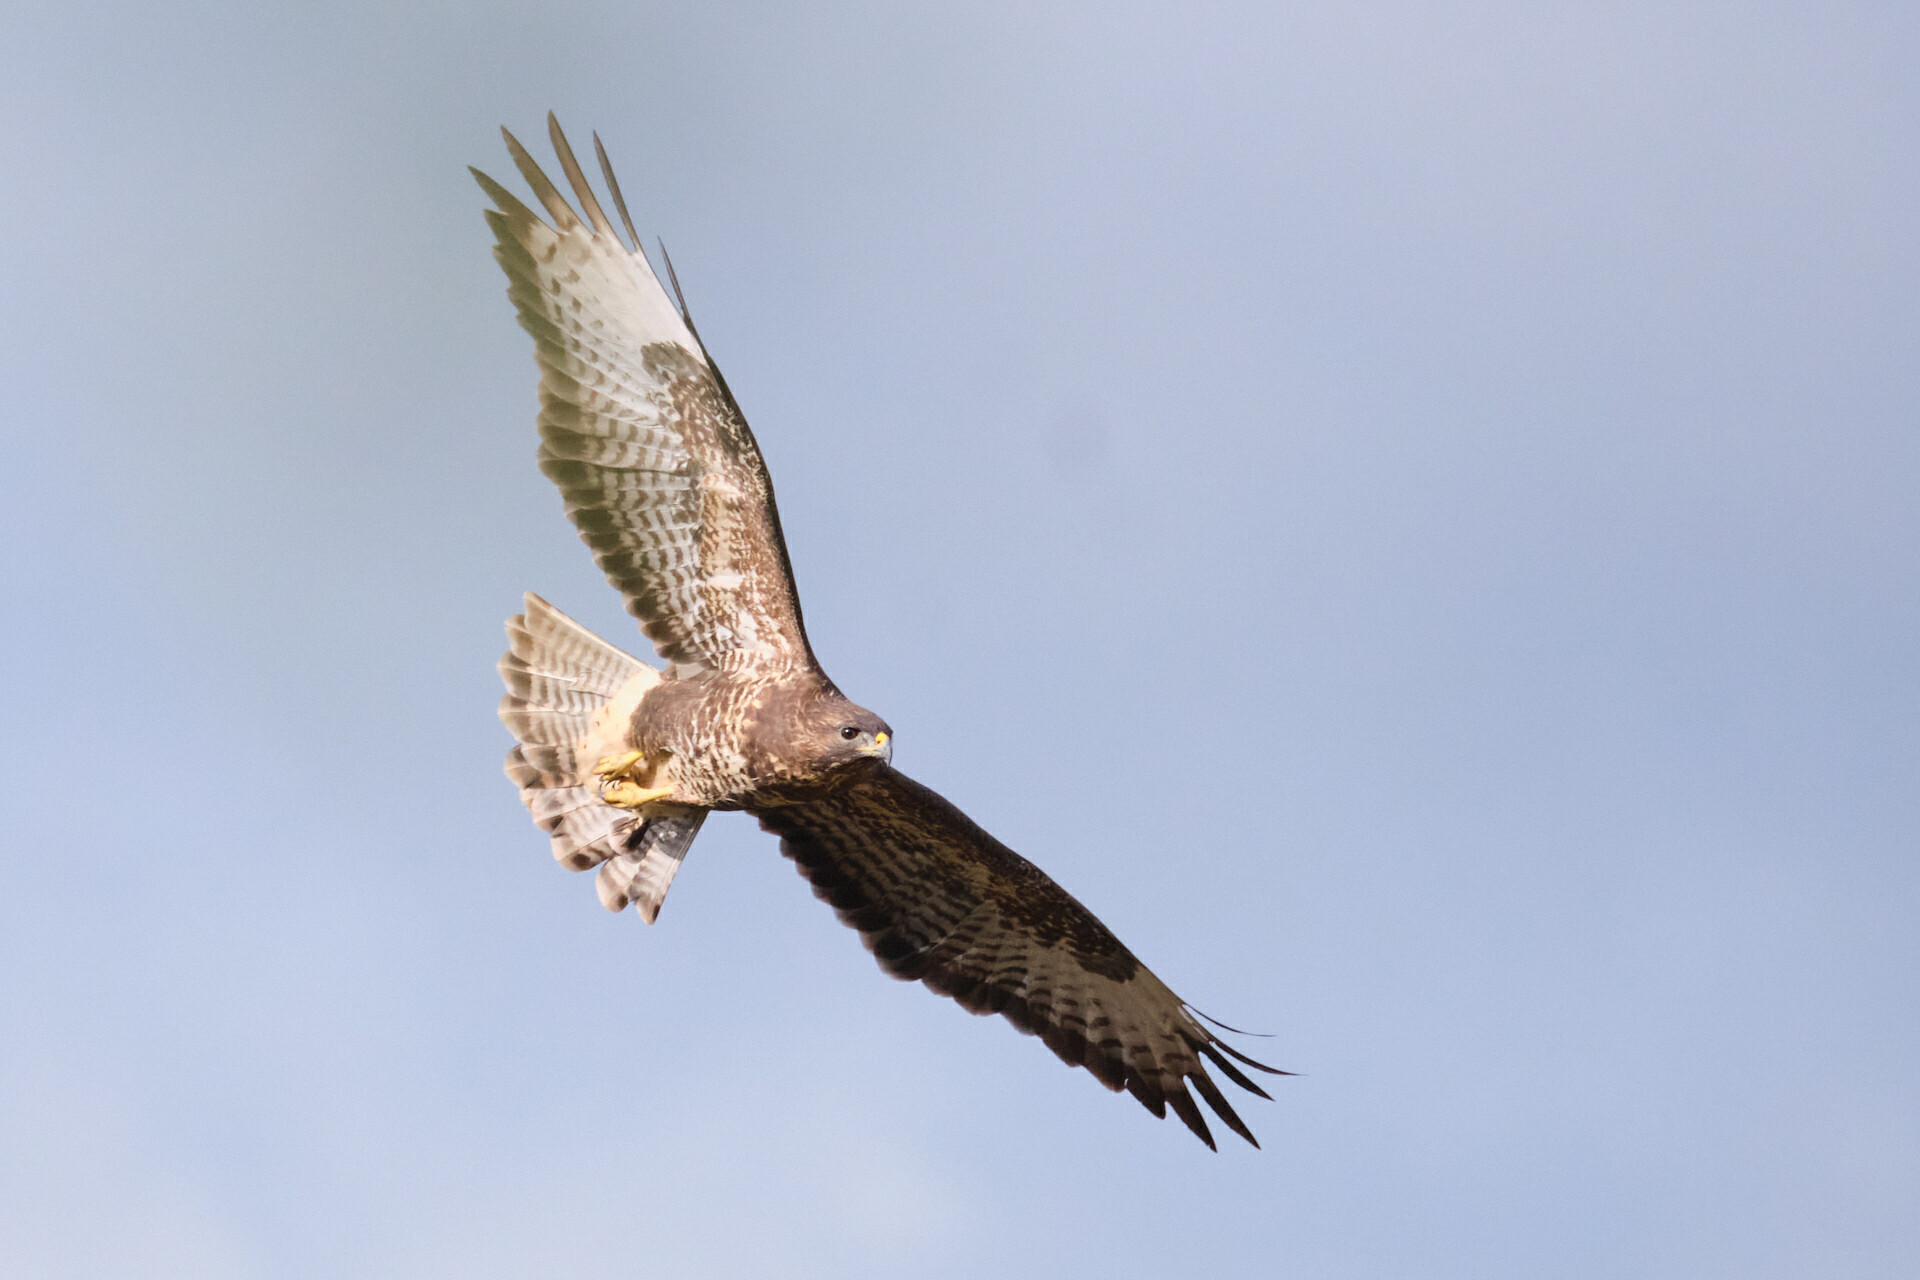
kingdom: Animalia
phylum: Chordata
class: Aves
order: Accipitriformes
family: Accipitridae
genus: Buteo
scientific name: Buteo buteo
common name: Common buzzard
